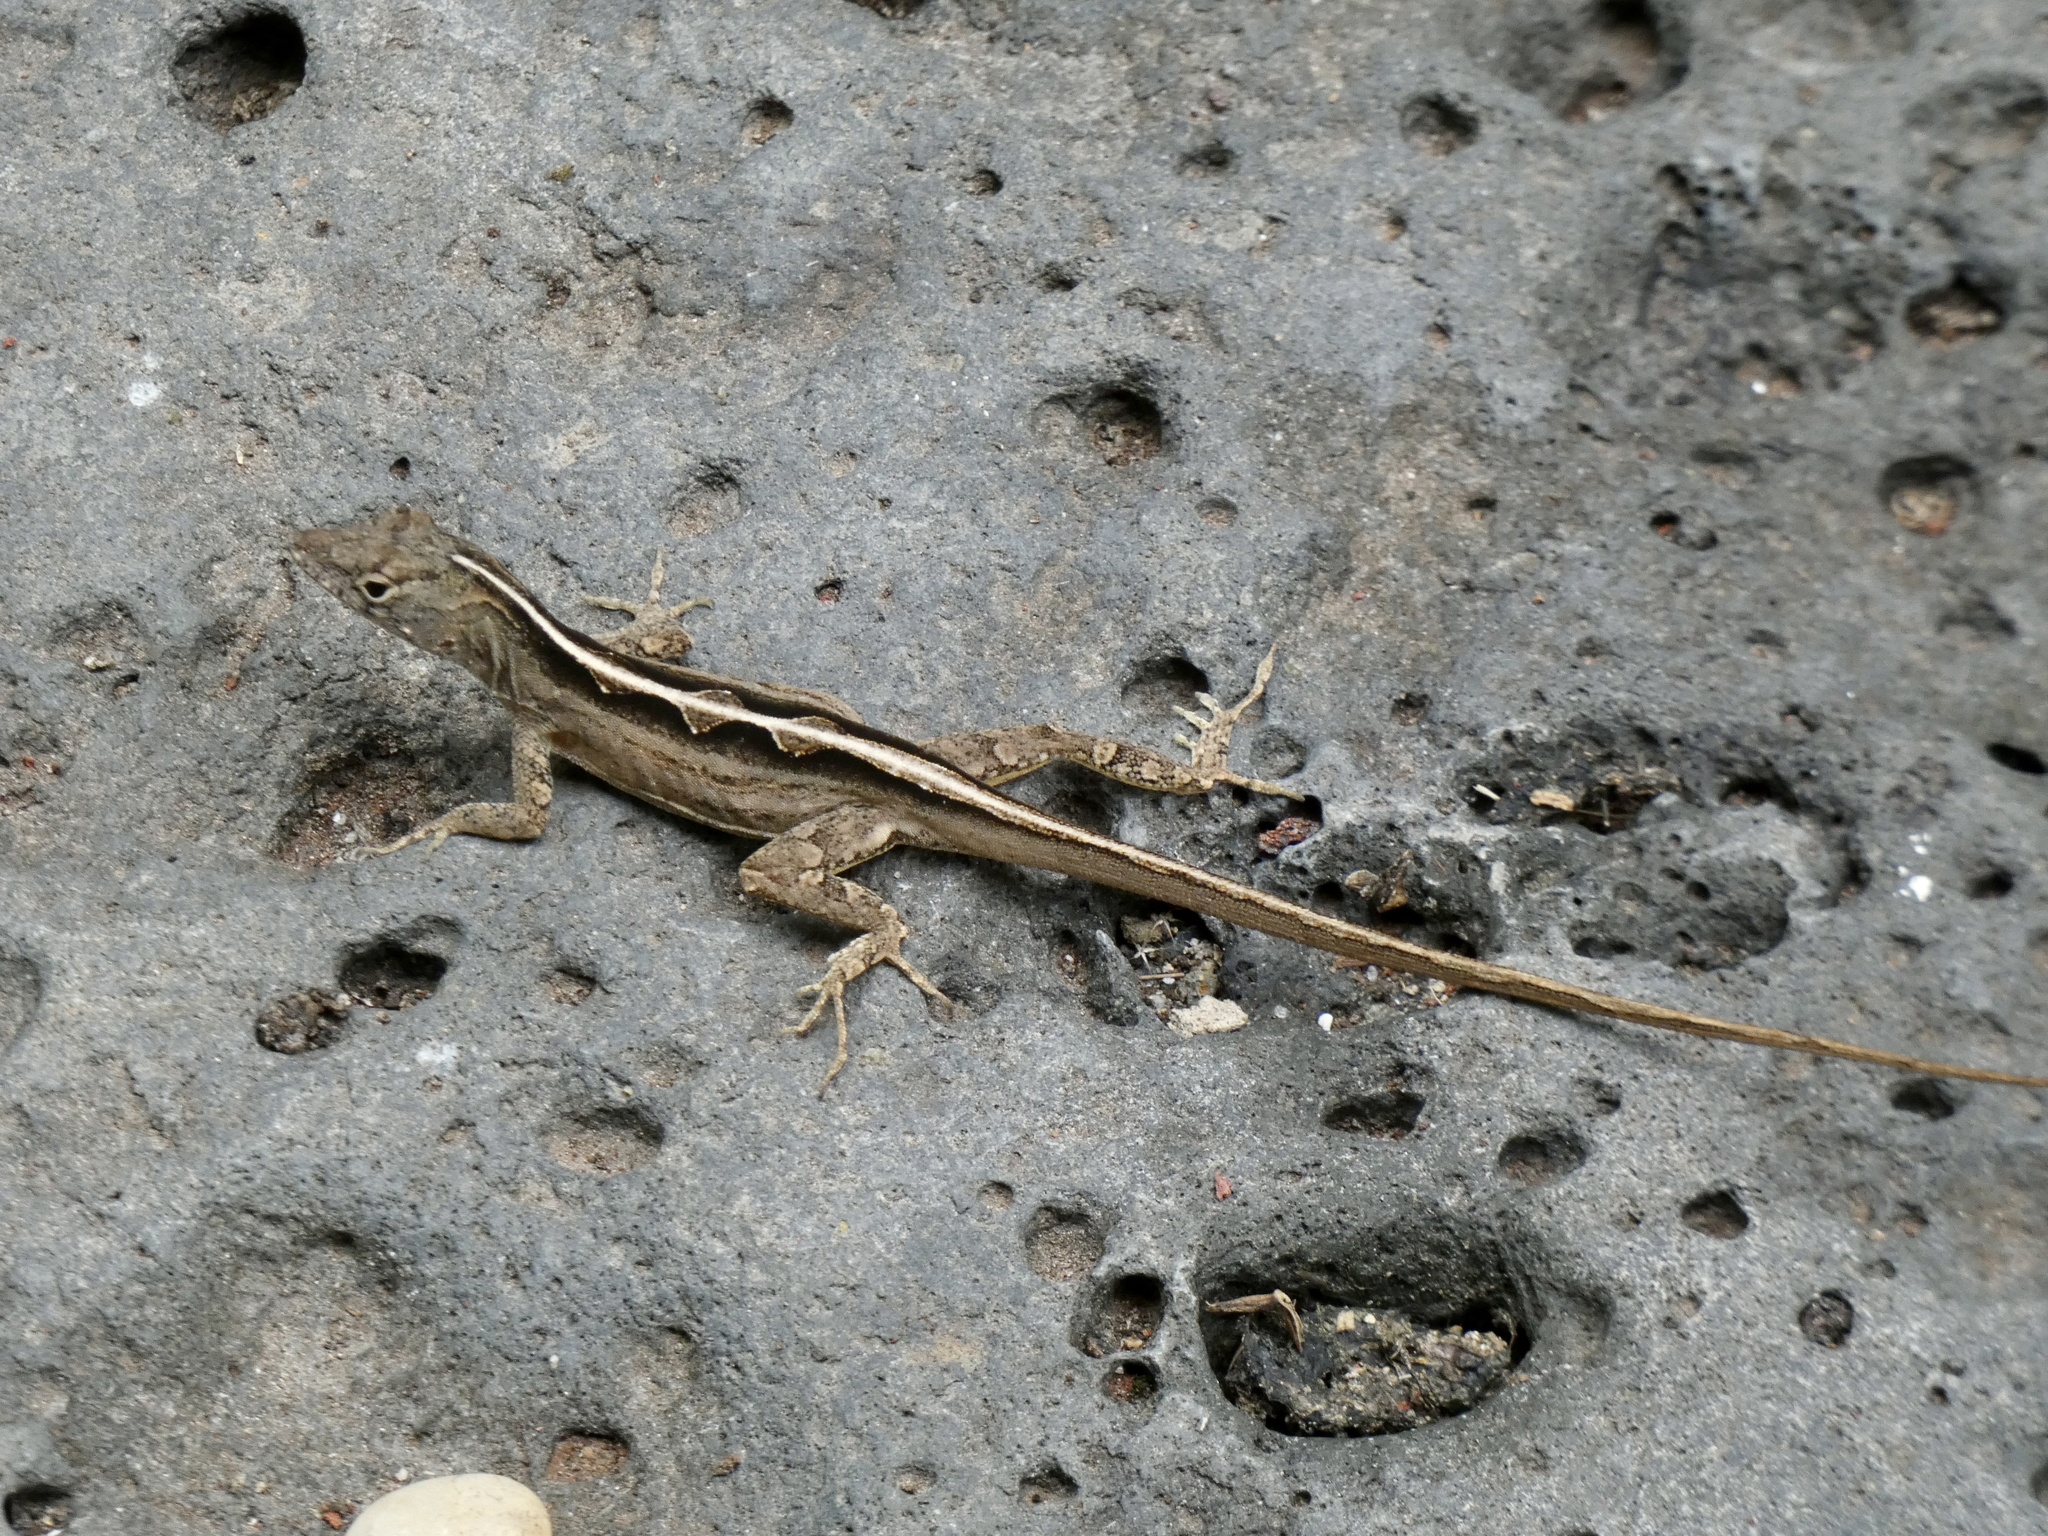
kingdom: Animalia
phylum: Chordata
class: Squamata
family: Dactyloidae
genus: Anolis
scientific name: Anolis sagrei
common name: Brown anole
